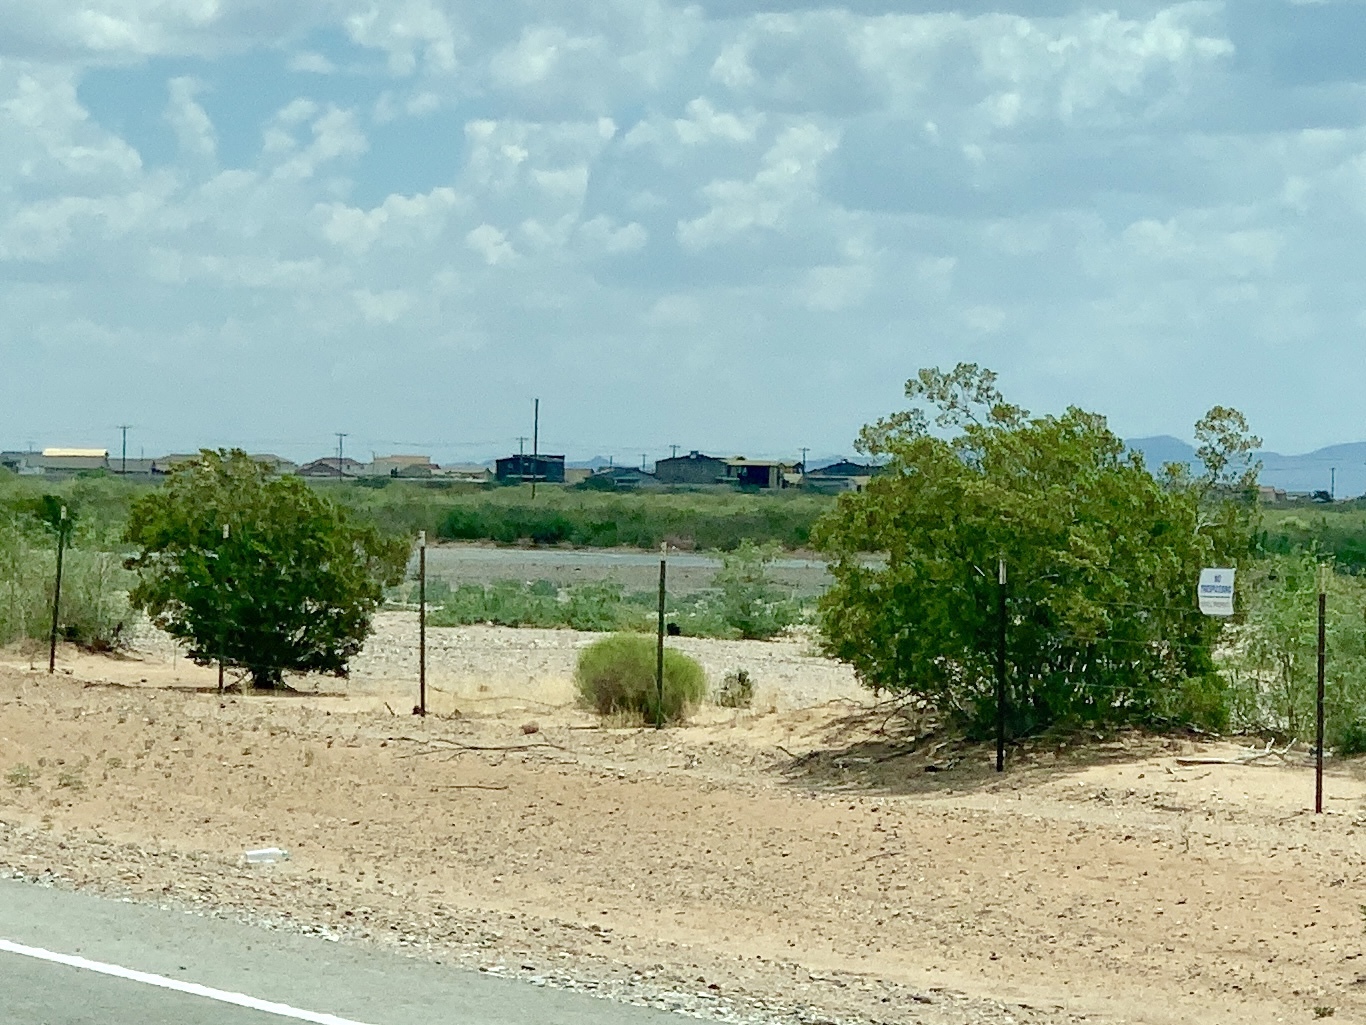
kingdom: Plantae
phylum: Tracheophyta
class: Magnoliopsida
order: Zygophyllales
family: Zygophyllaceae
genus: Larrea
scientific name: Larrea tridentata
